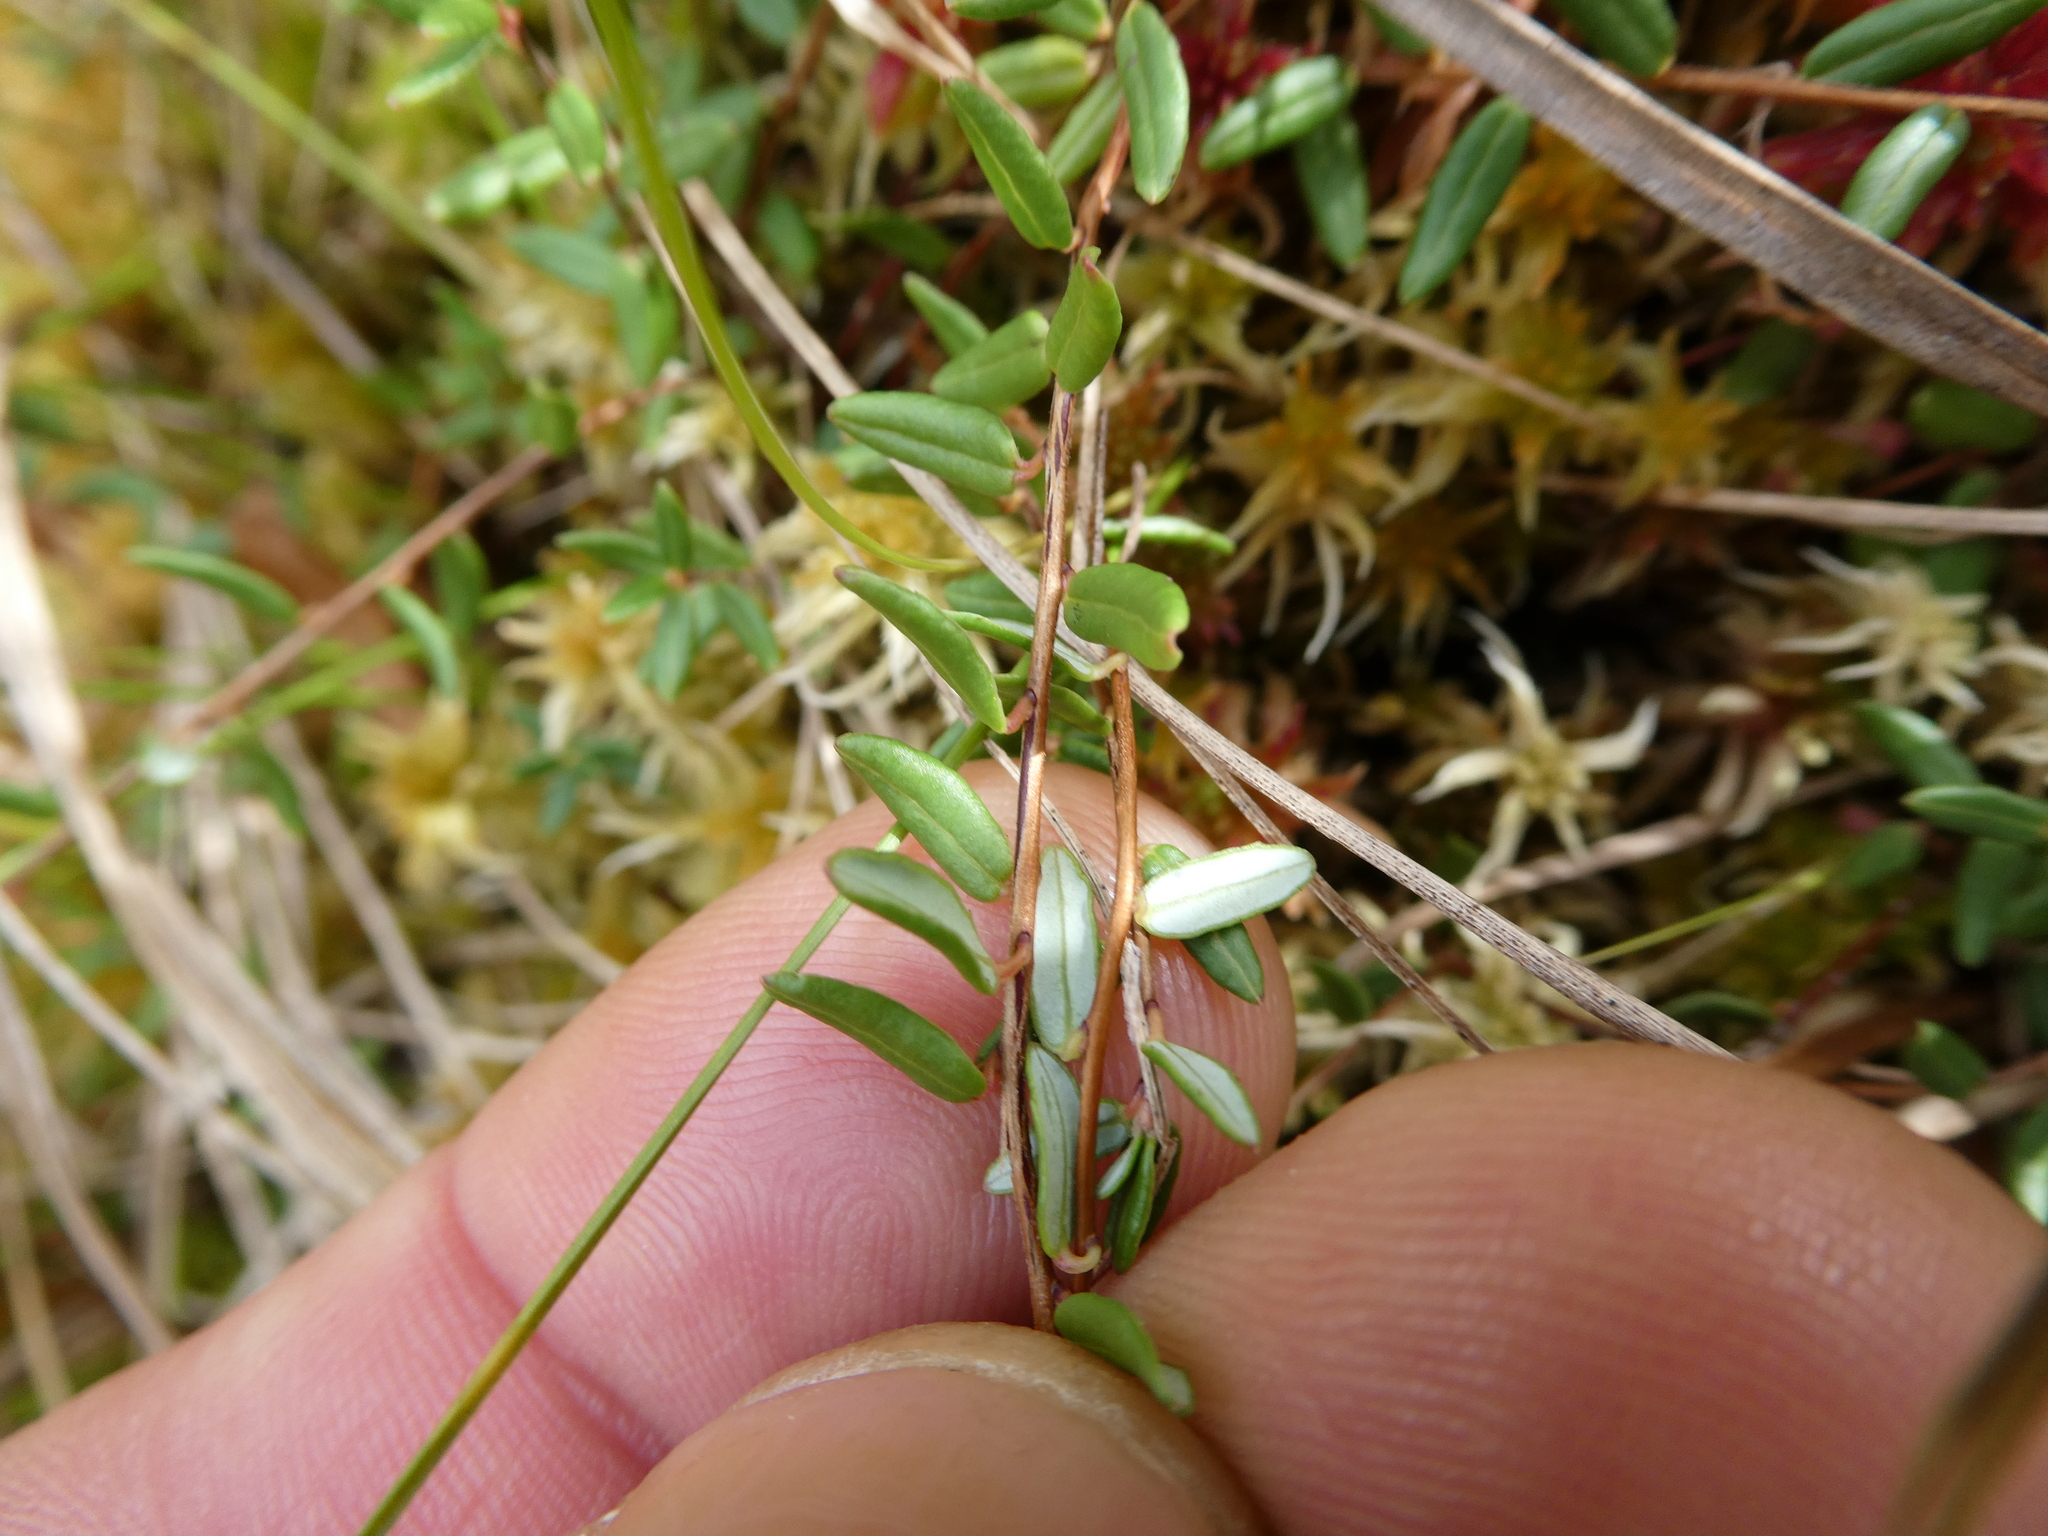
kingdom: Plantae
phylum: Tracheophyta
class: Magnoliopsida
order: Ericales
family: Ericaceae
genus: Vaccinium
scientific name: Vaccinium oxycoccos
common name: Cranberry
